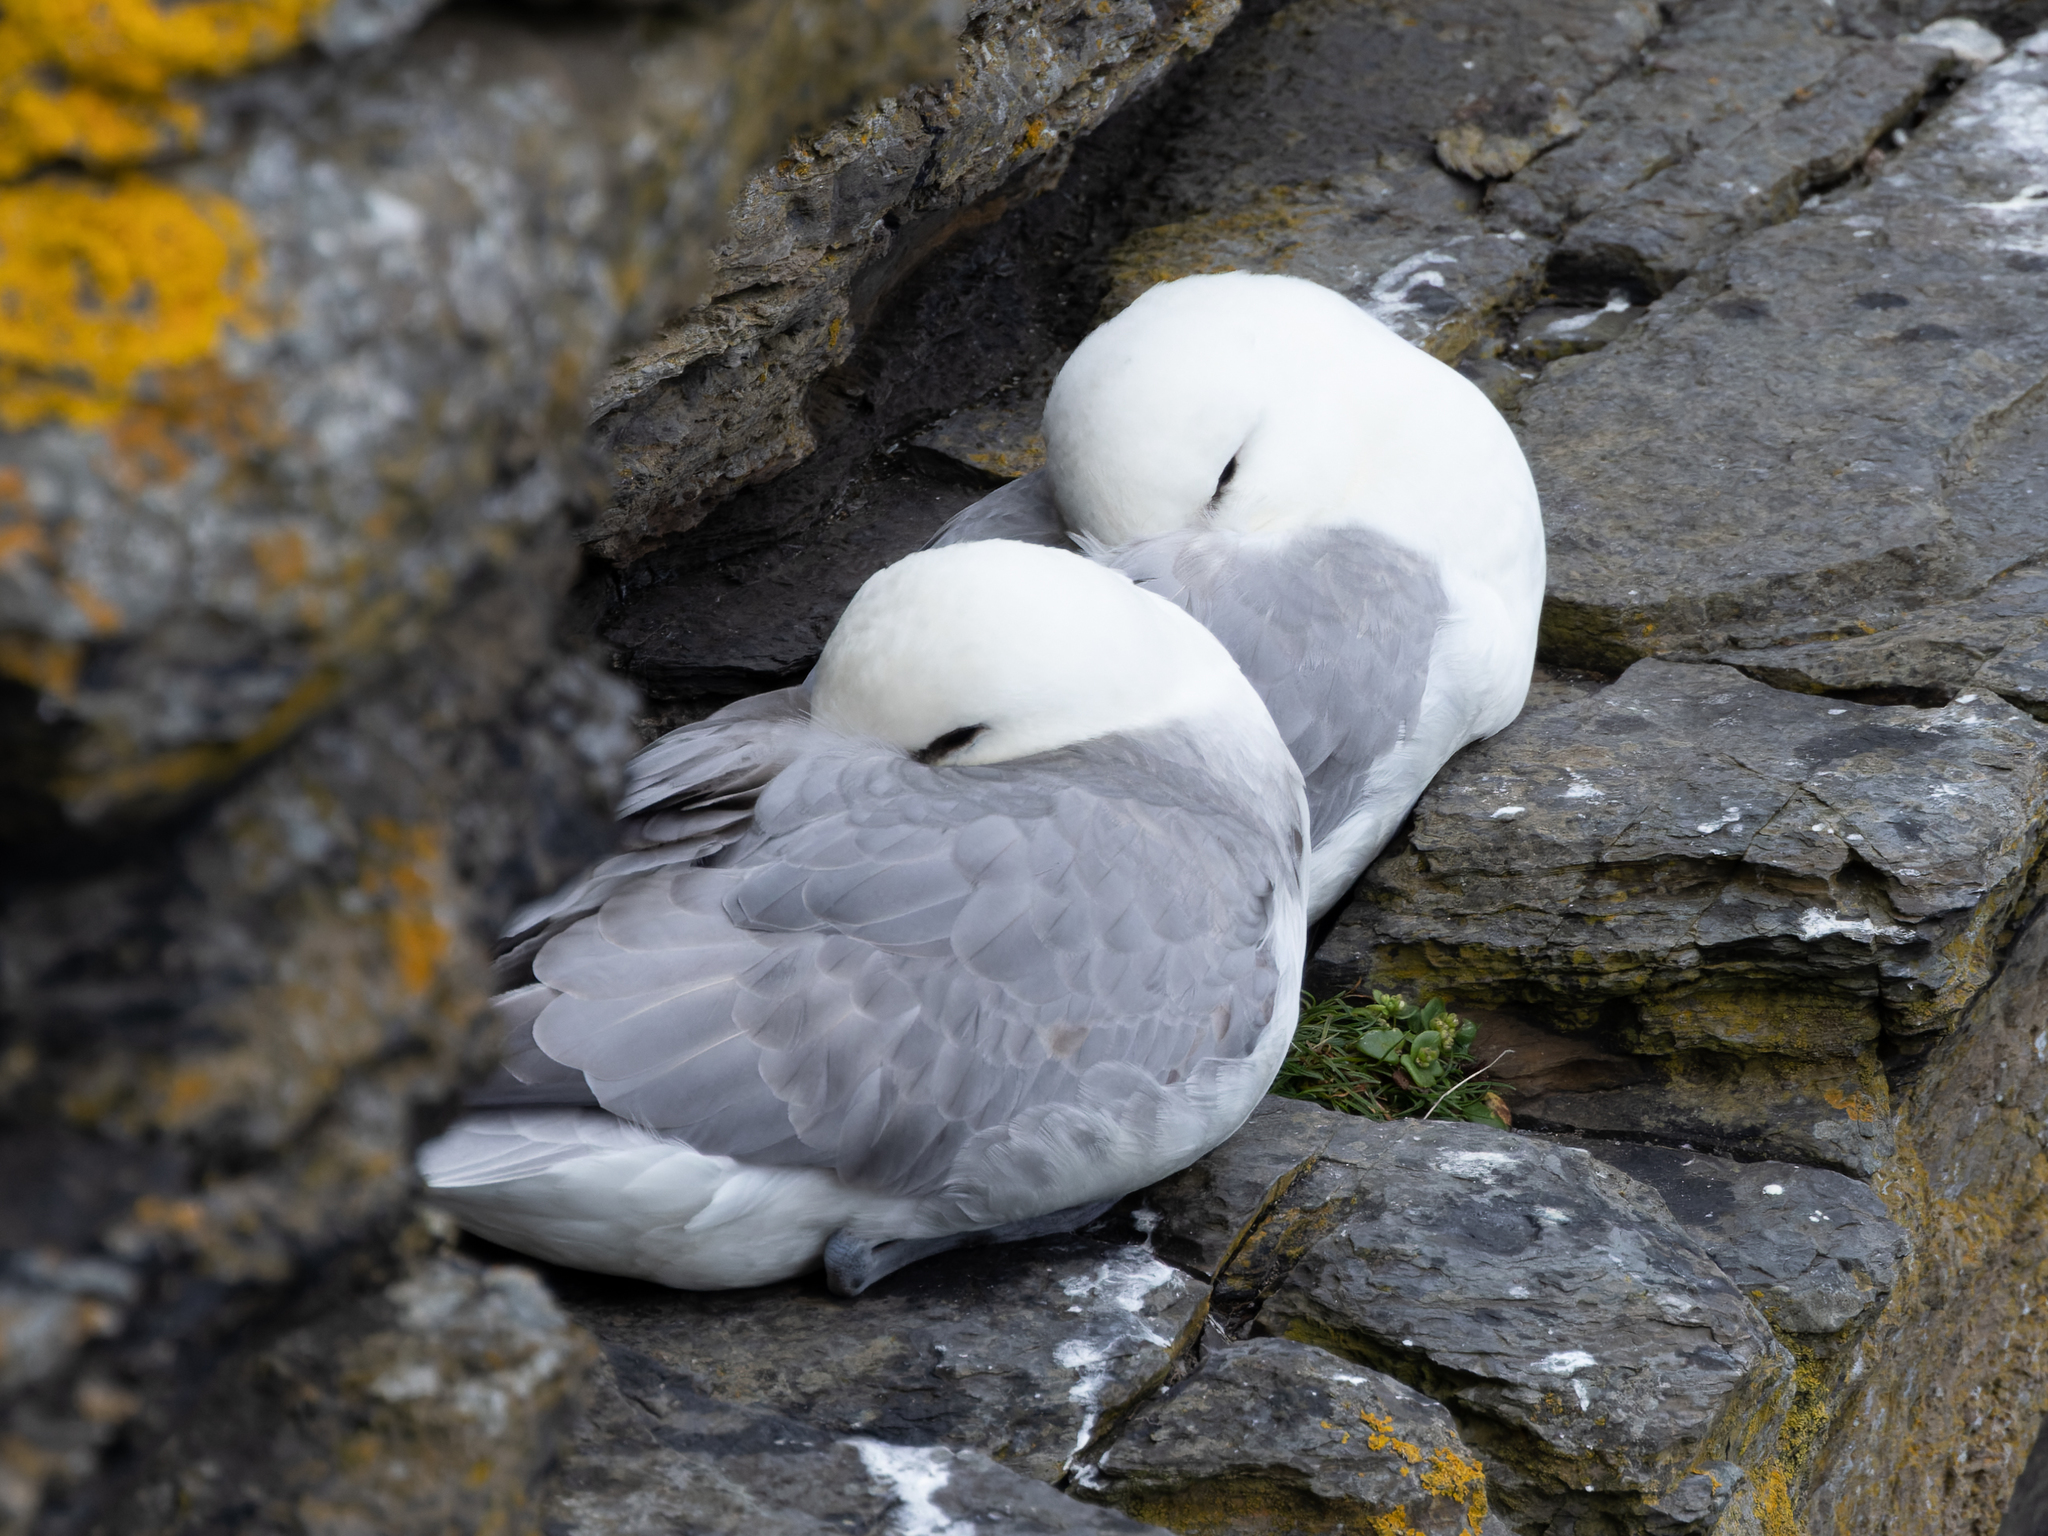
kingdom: Animalia
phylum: Chordata
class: Aves
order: Procellariiformes
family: Procellariidae
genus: Fulmarus
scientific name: Fulmarus glacialis
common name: Northern fulmar
